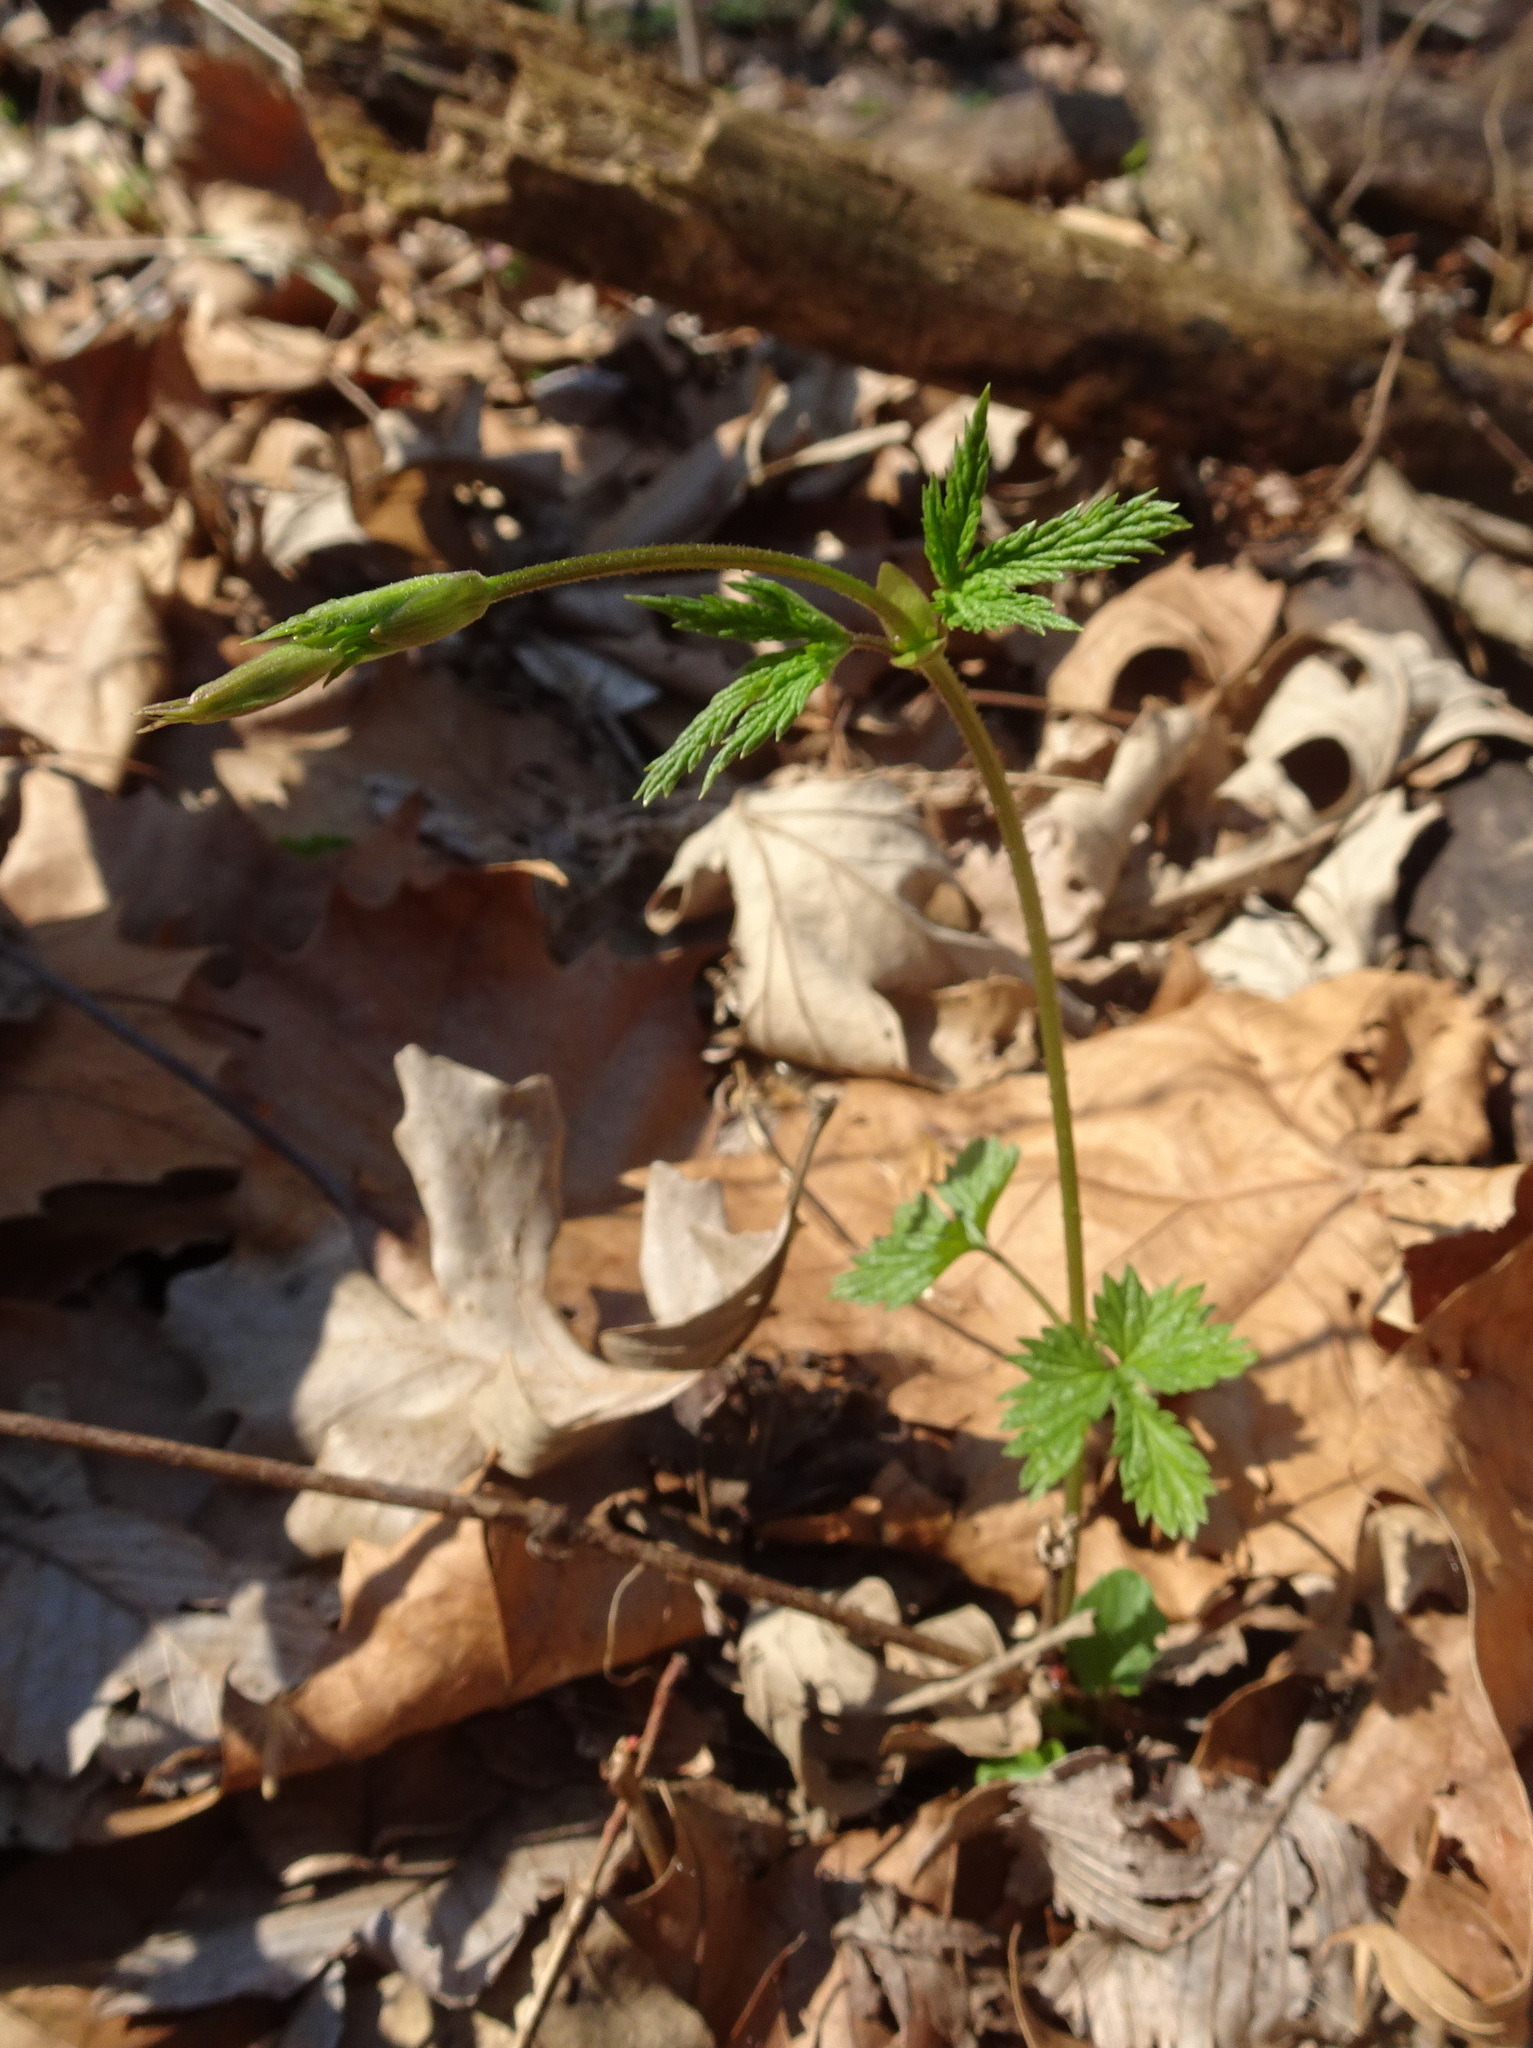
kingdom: Plantae
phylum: Tracheophyta
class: Magnoliopsida
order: Rosales
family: Cannabaceae
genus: Humulus
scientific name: Humulus lupulus
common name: Hop
